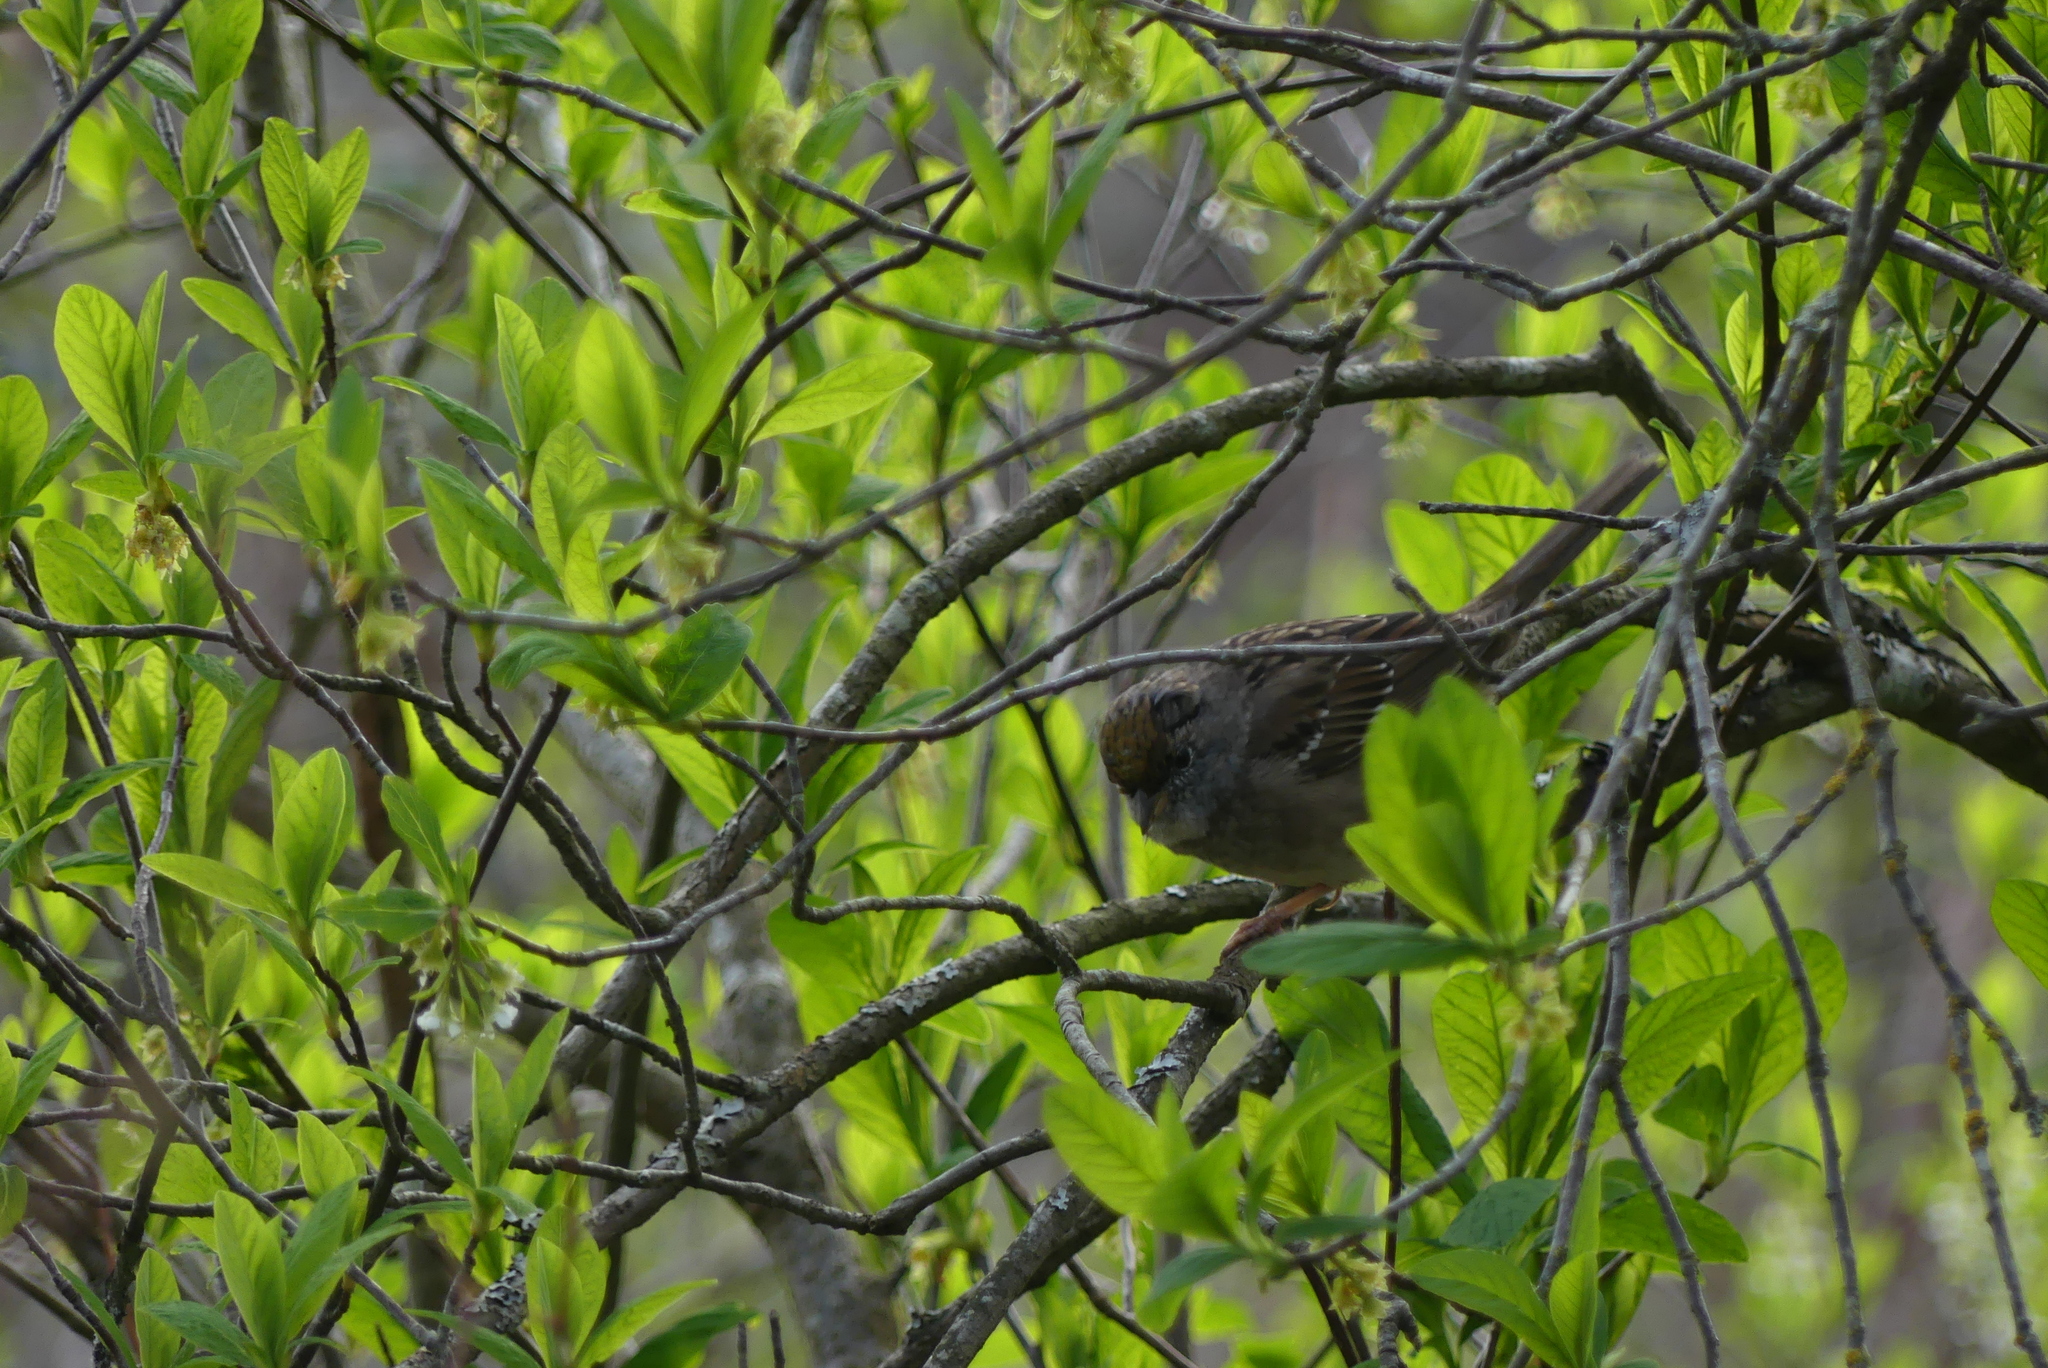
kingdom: Animalia
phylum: Chordata
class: Aves
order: Passeriformes
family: Passerellidae
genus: Zonotrichia
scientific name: Zonotrichia atricapilla
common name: Golden-crowned sparrow
